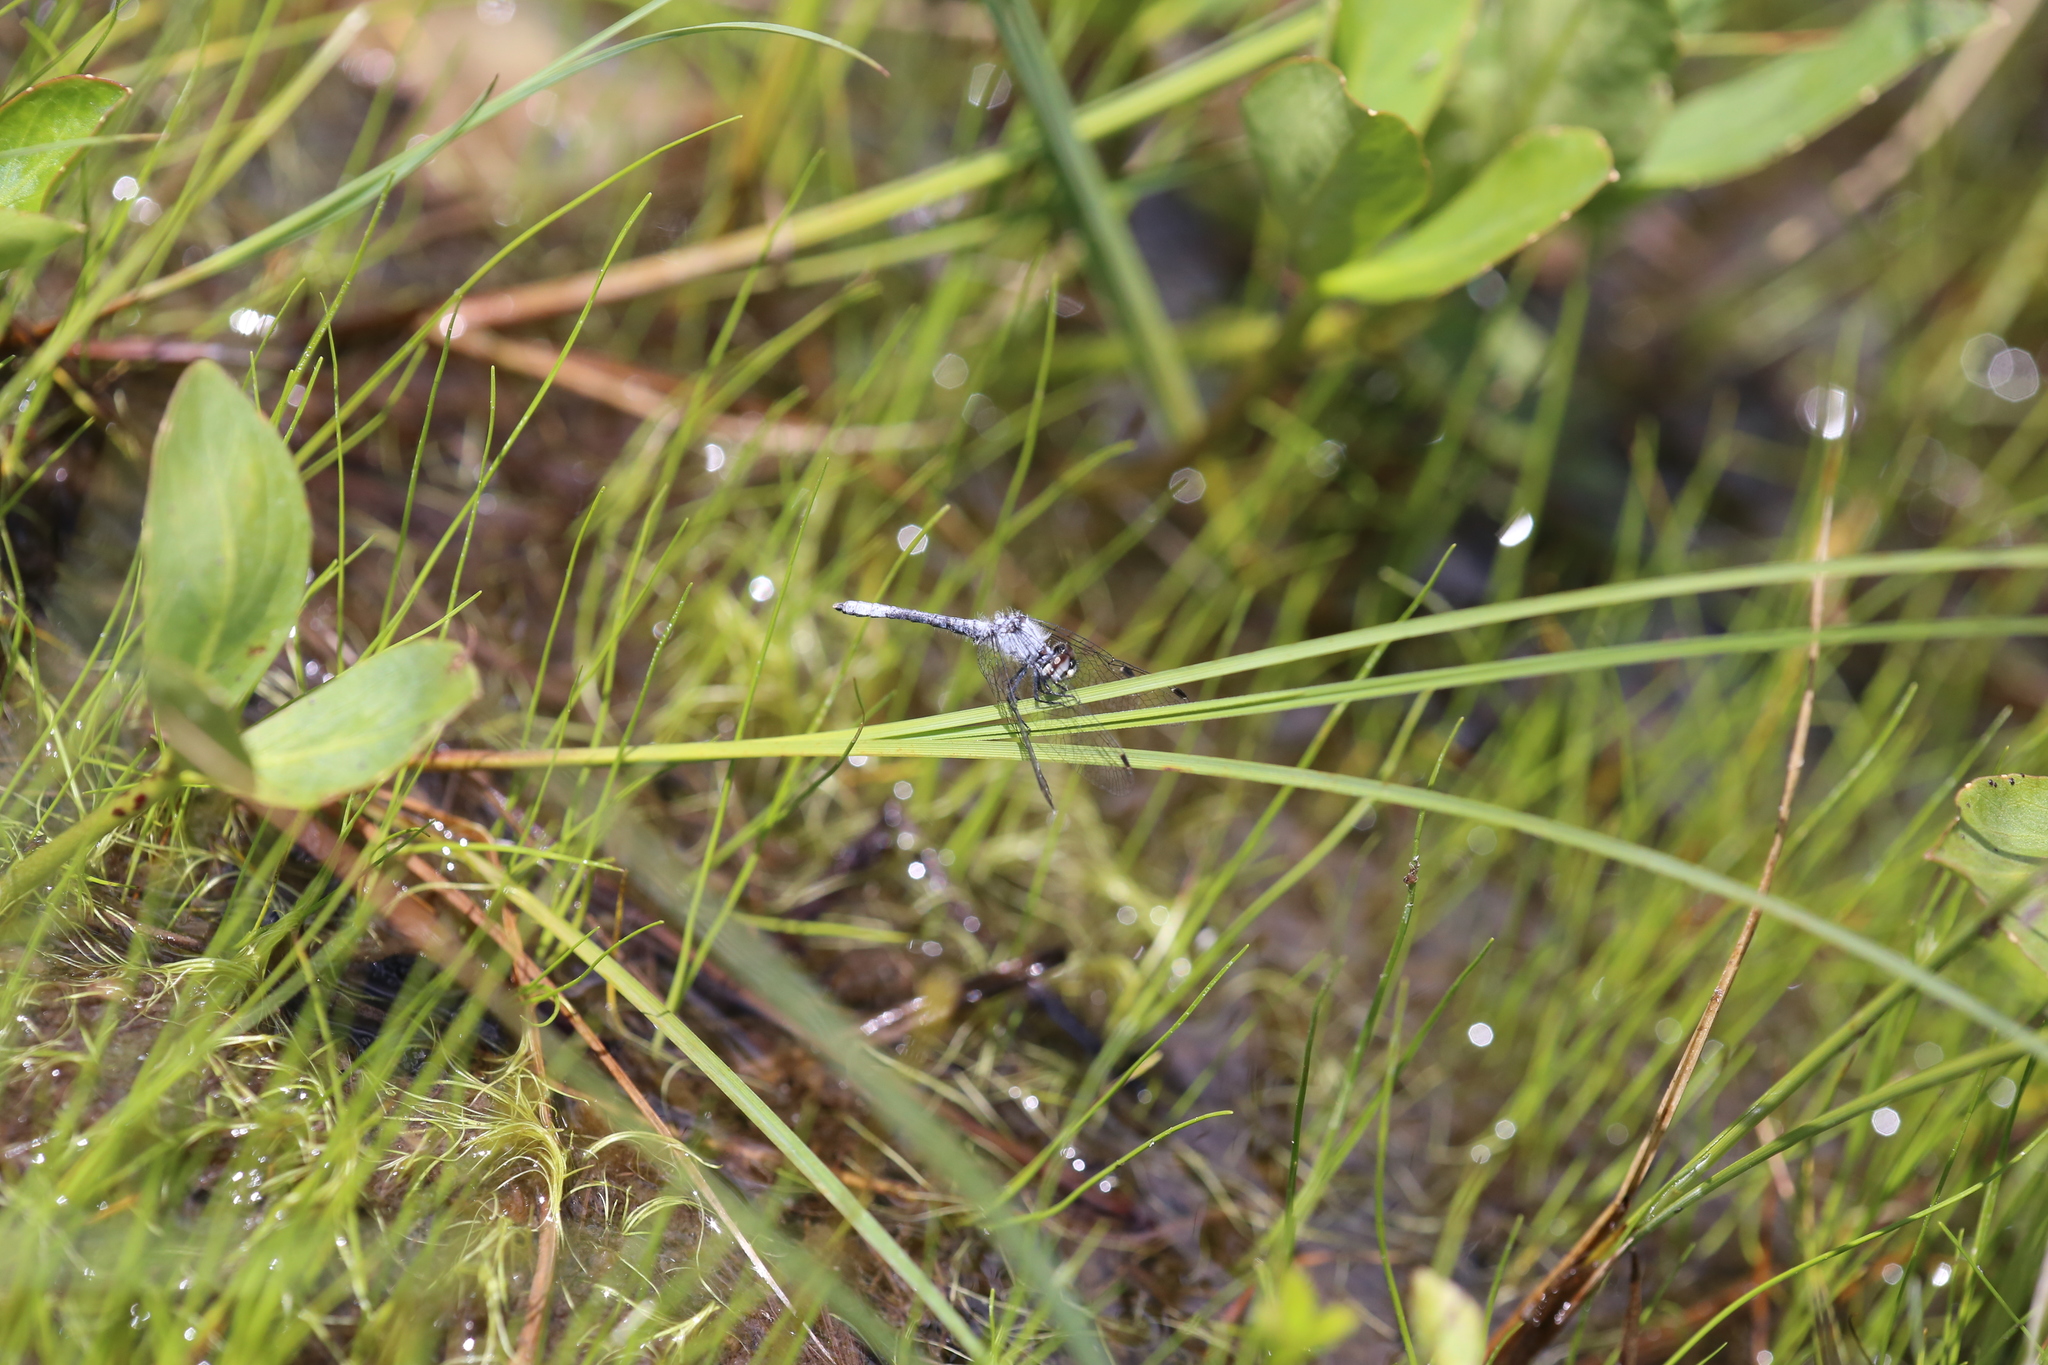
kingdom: Animalia
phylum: Arthropoda
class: Insecta
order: Odonata
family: Libellulidae
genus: Nannothemis
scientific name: Nannothemis bella
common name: Elfin skimmer
